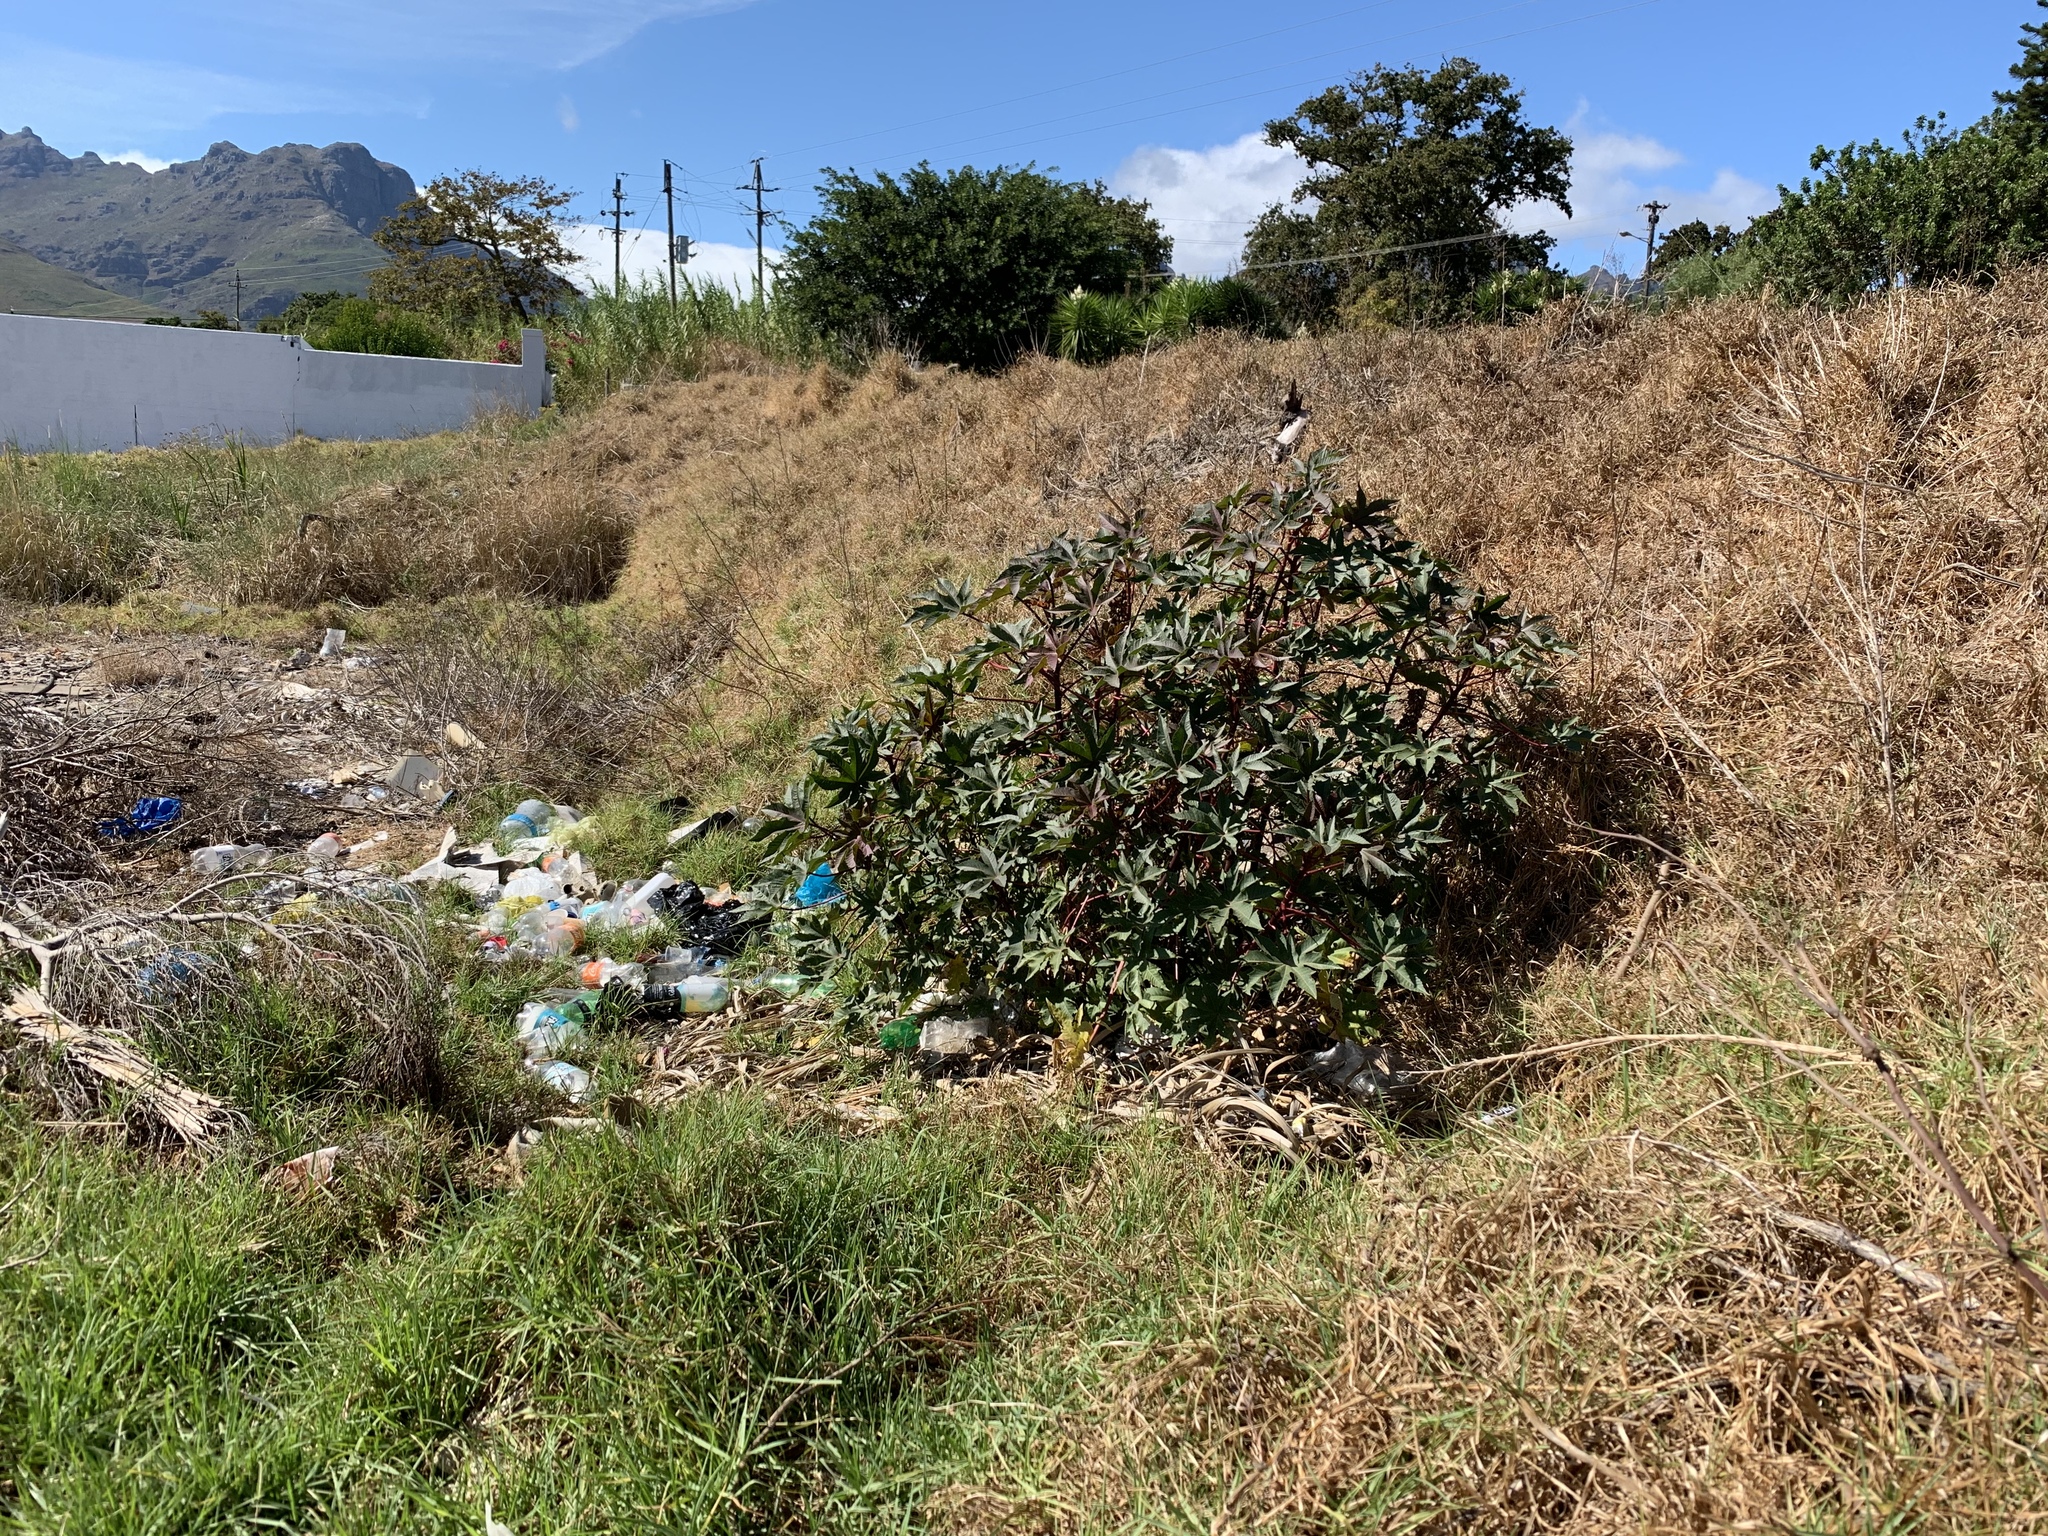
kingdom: Plantae
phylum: Tracheophyta
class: Magnoliopsida
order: Malpighiales
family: Euphorbiaceae
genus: Ricinus
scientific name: Ricinus communis
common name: Castor-oil-plant
